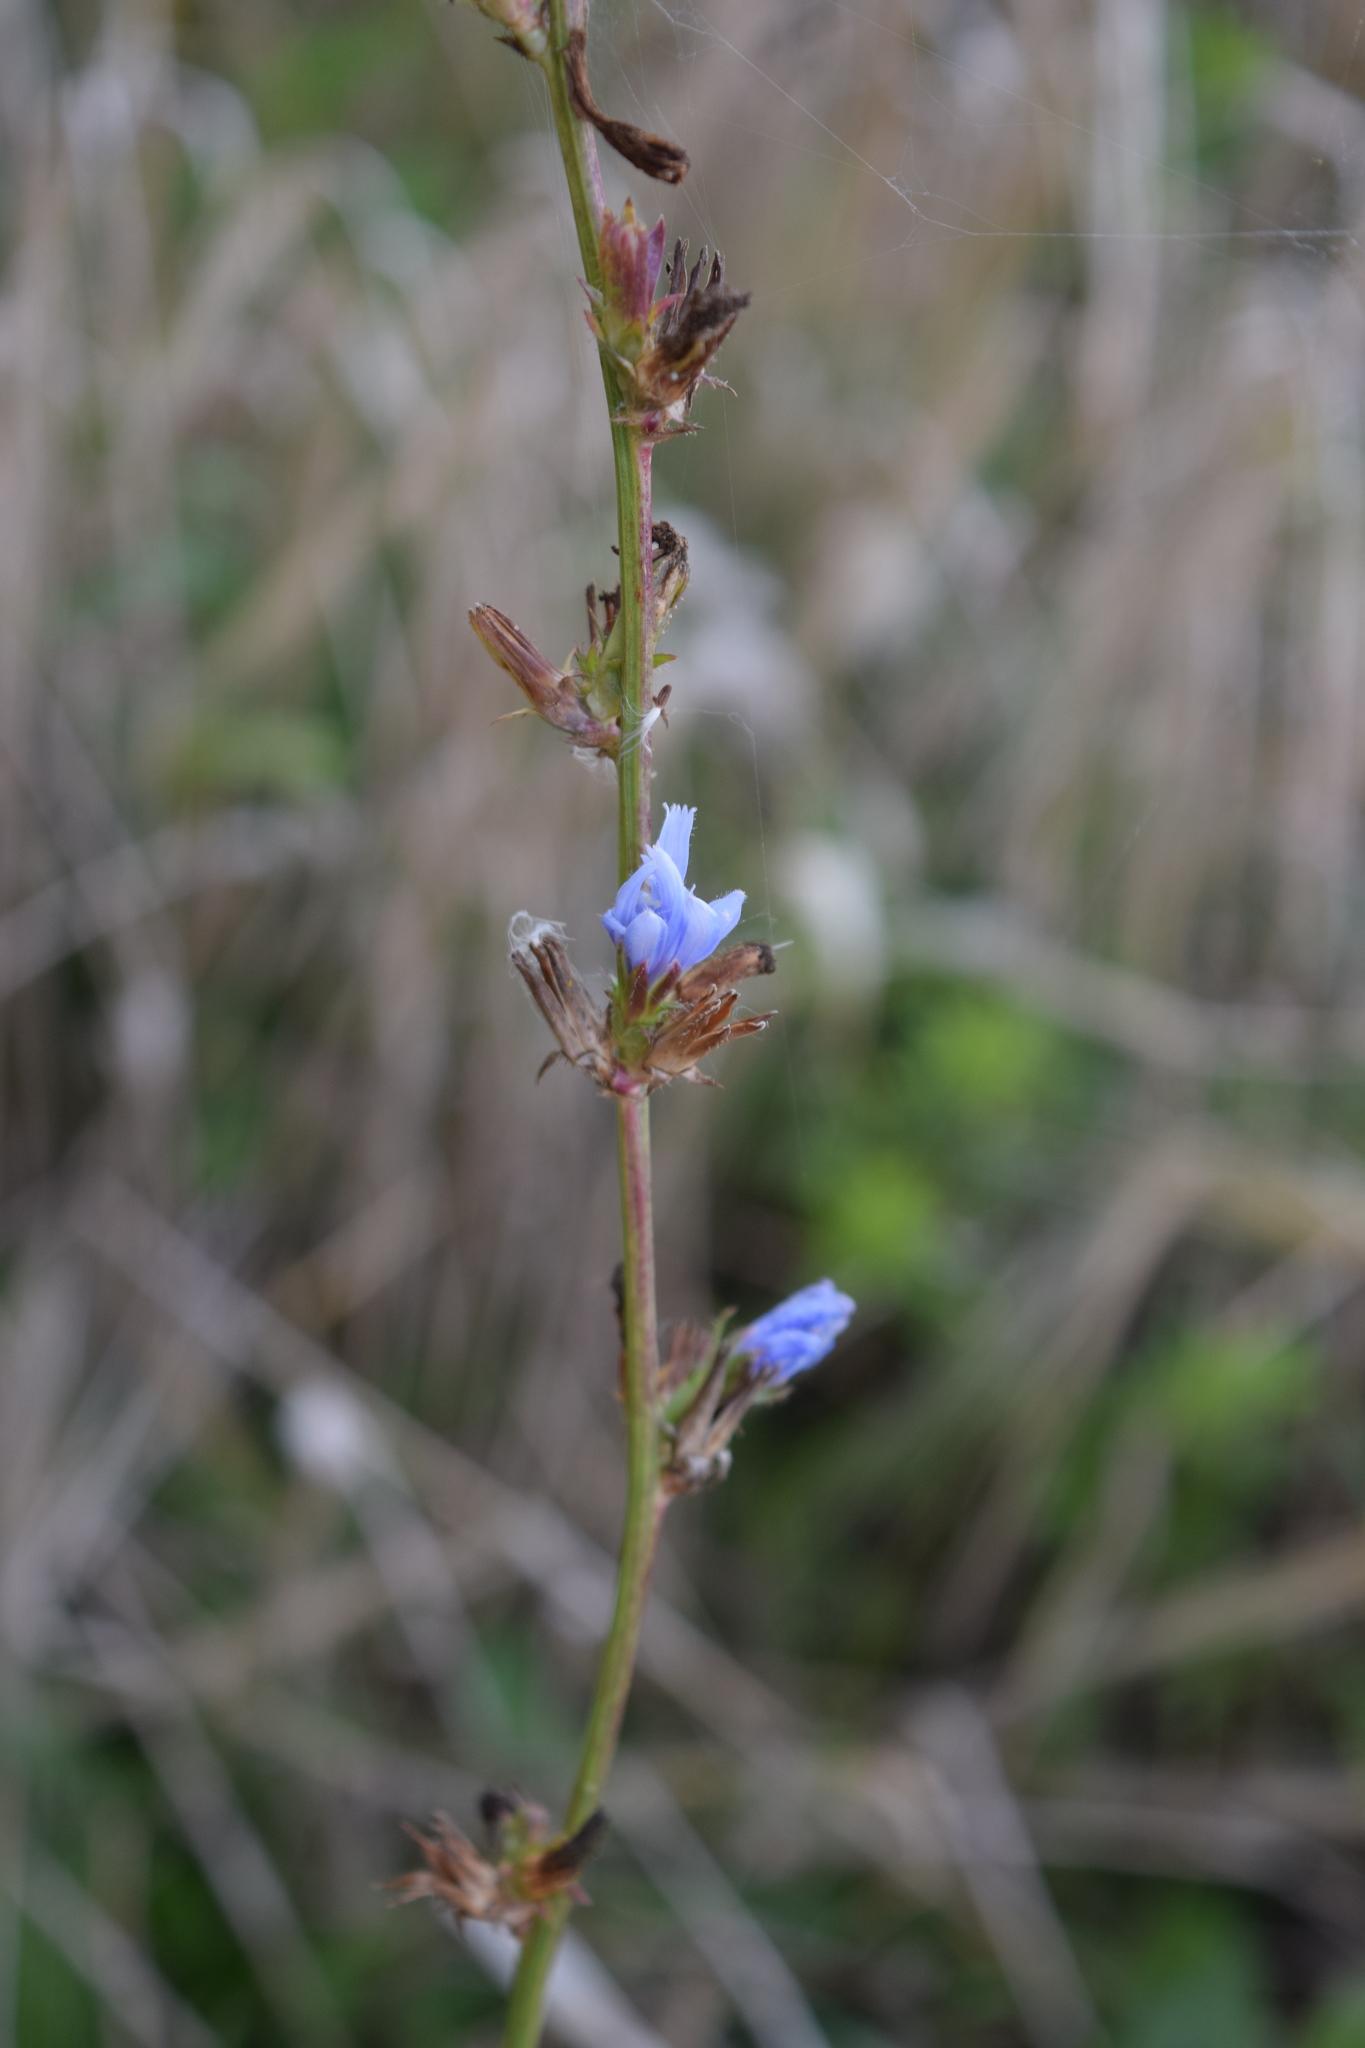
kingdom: Plantae
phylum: Tracheophyta
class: Magnoliopsida
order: Asterales
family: Asteraceae
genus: Cichorium
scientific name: Cichorium intybus
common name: Chicory
